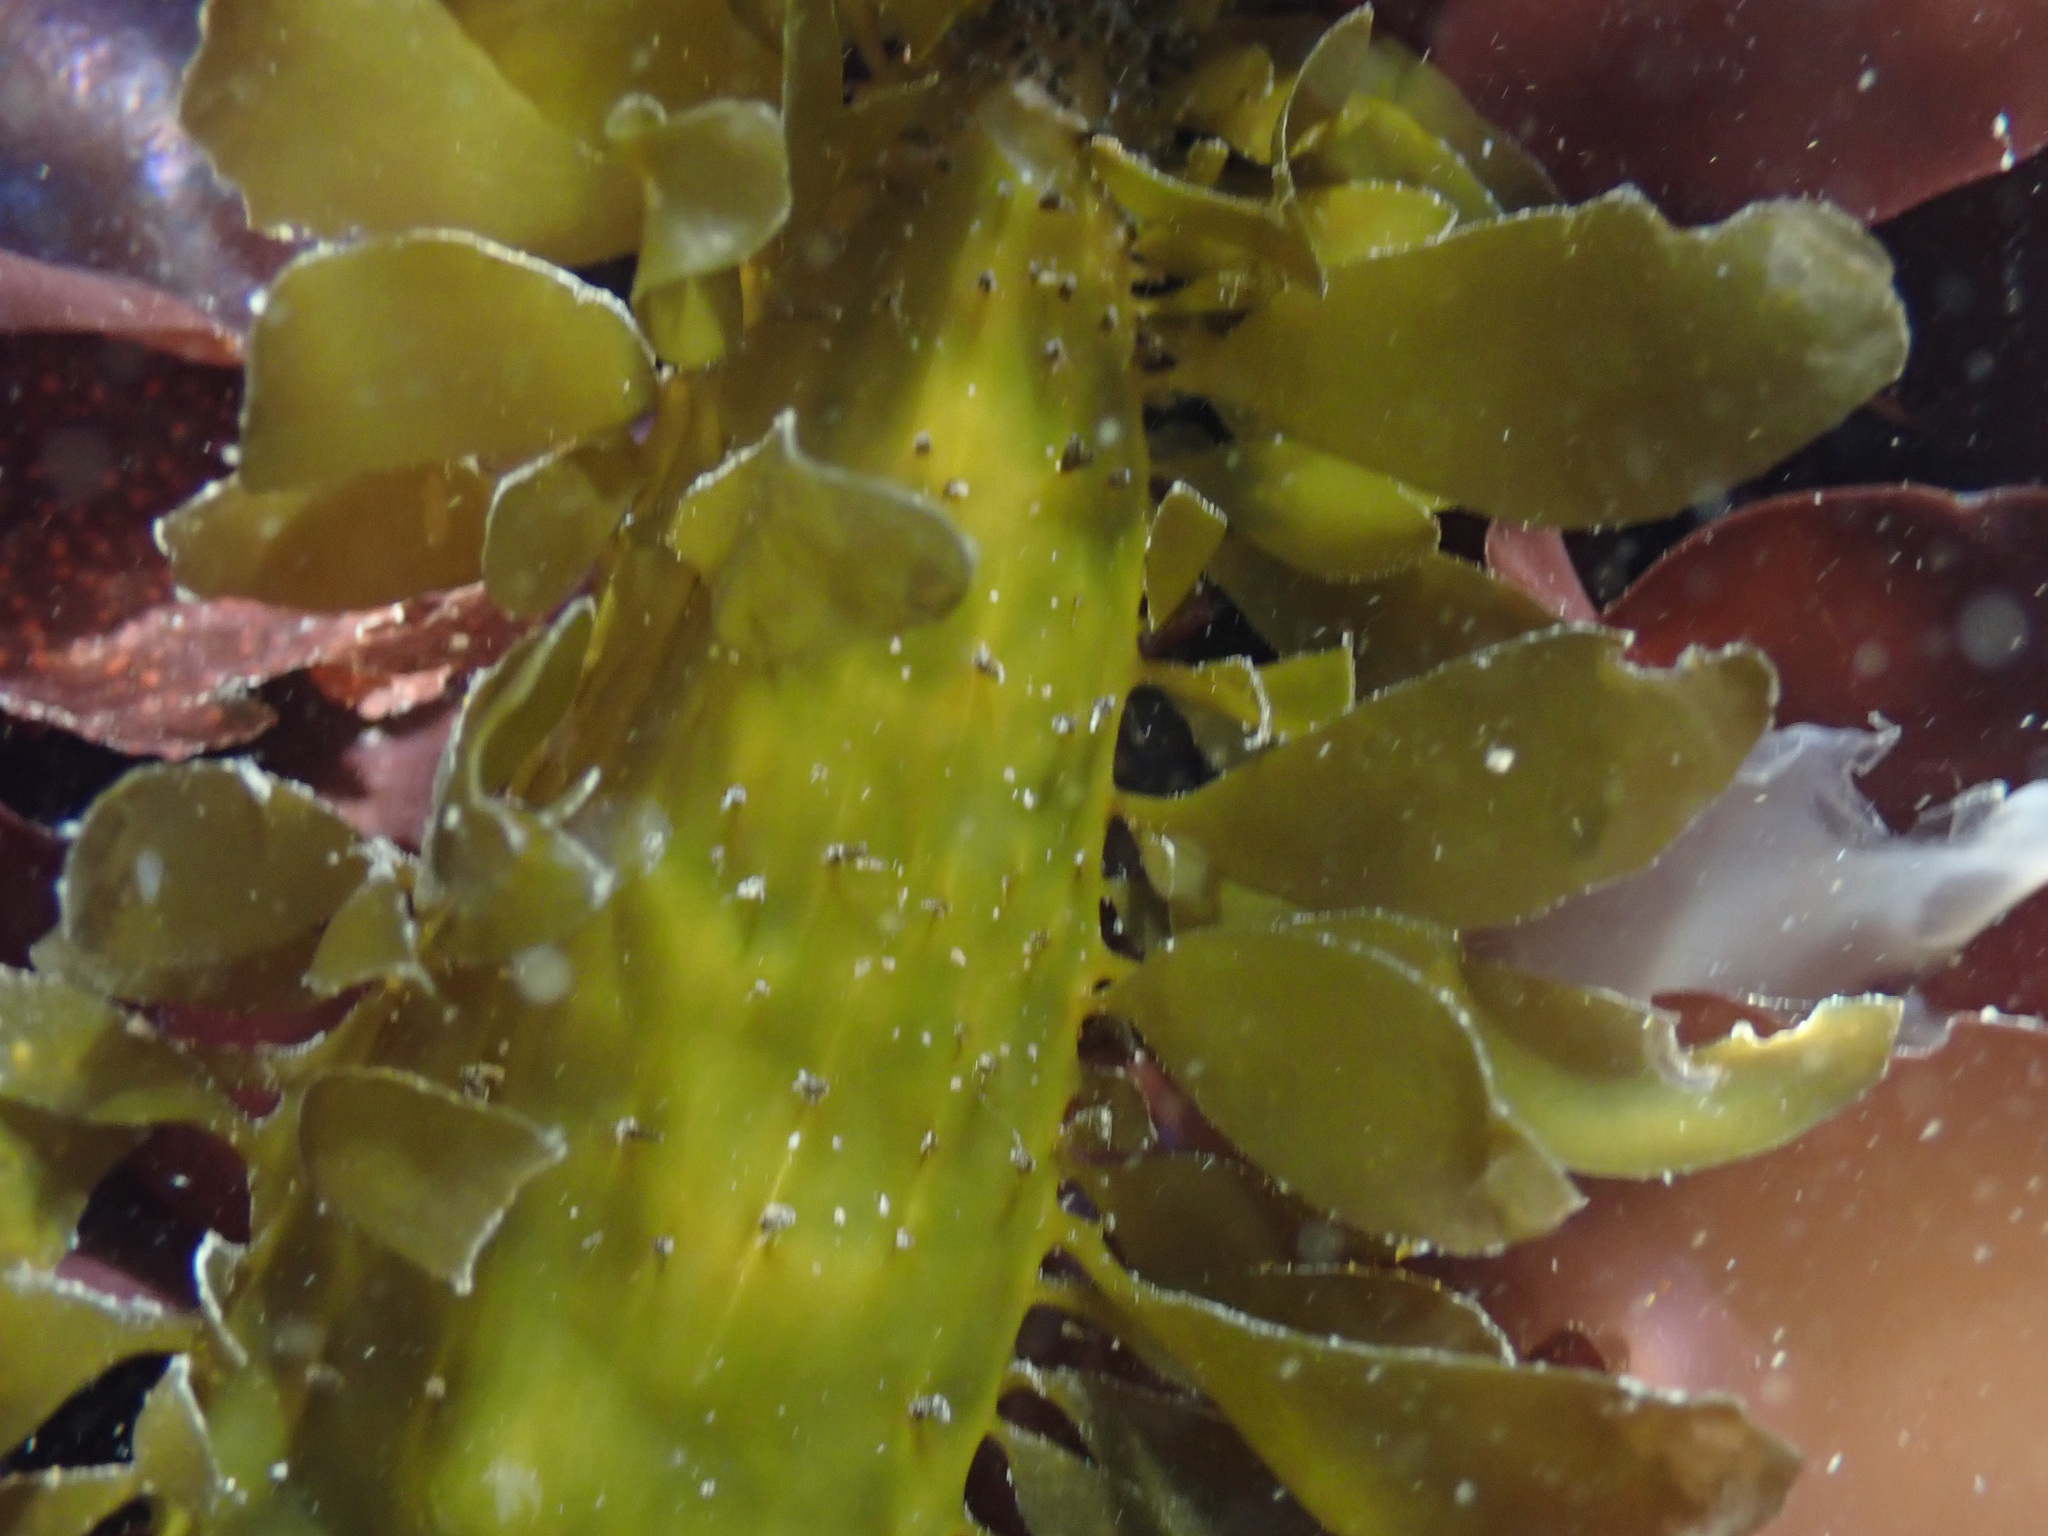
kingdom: Chromista
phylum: Ochrophyta
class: Phaeophyceae
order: Laminariales
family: Lessoniaceae
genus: Egregia
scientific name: Egregia menziesii
